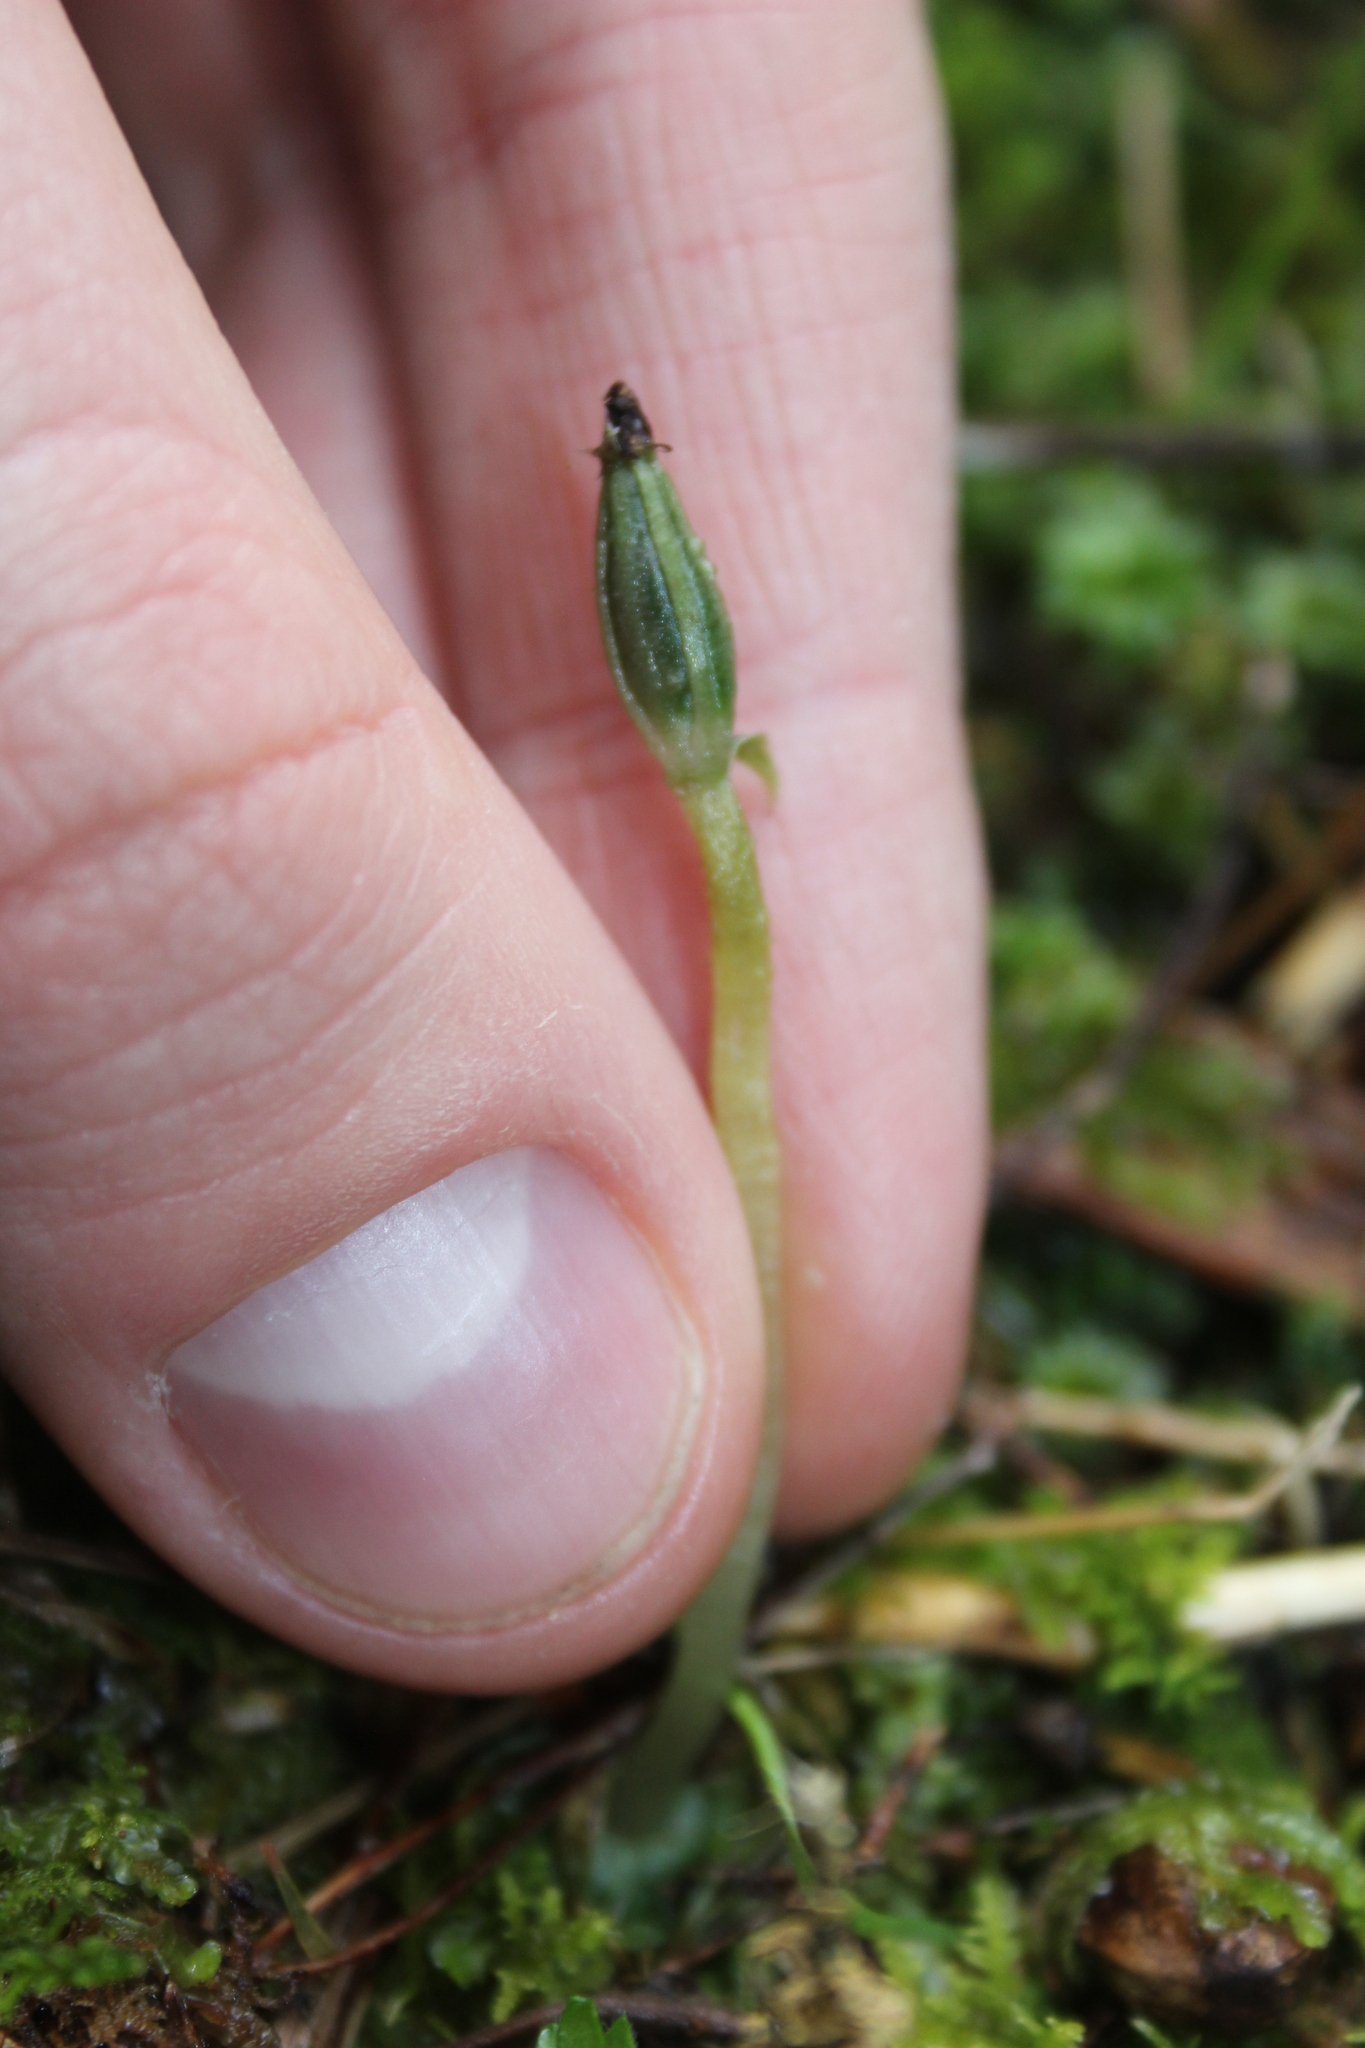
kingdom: Plantae
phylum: Tracheophyta
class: Liliopsida
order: Asparagales
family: Orchidaceae
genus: Corybas
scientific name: Corybas cheesemanii
